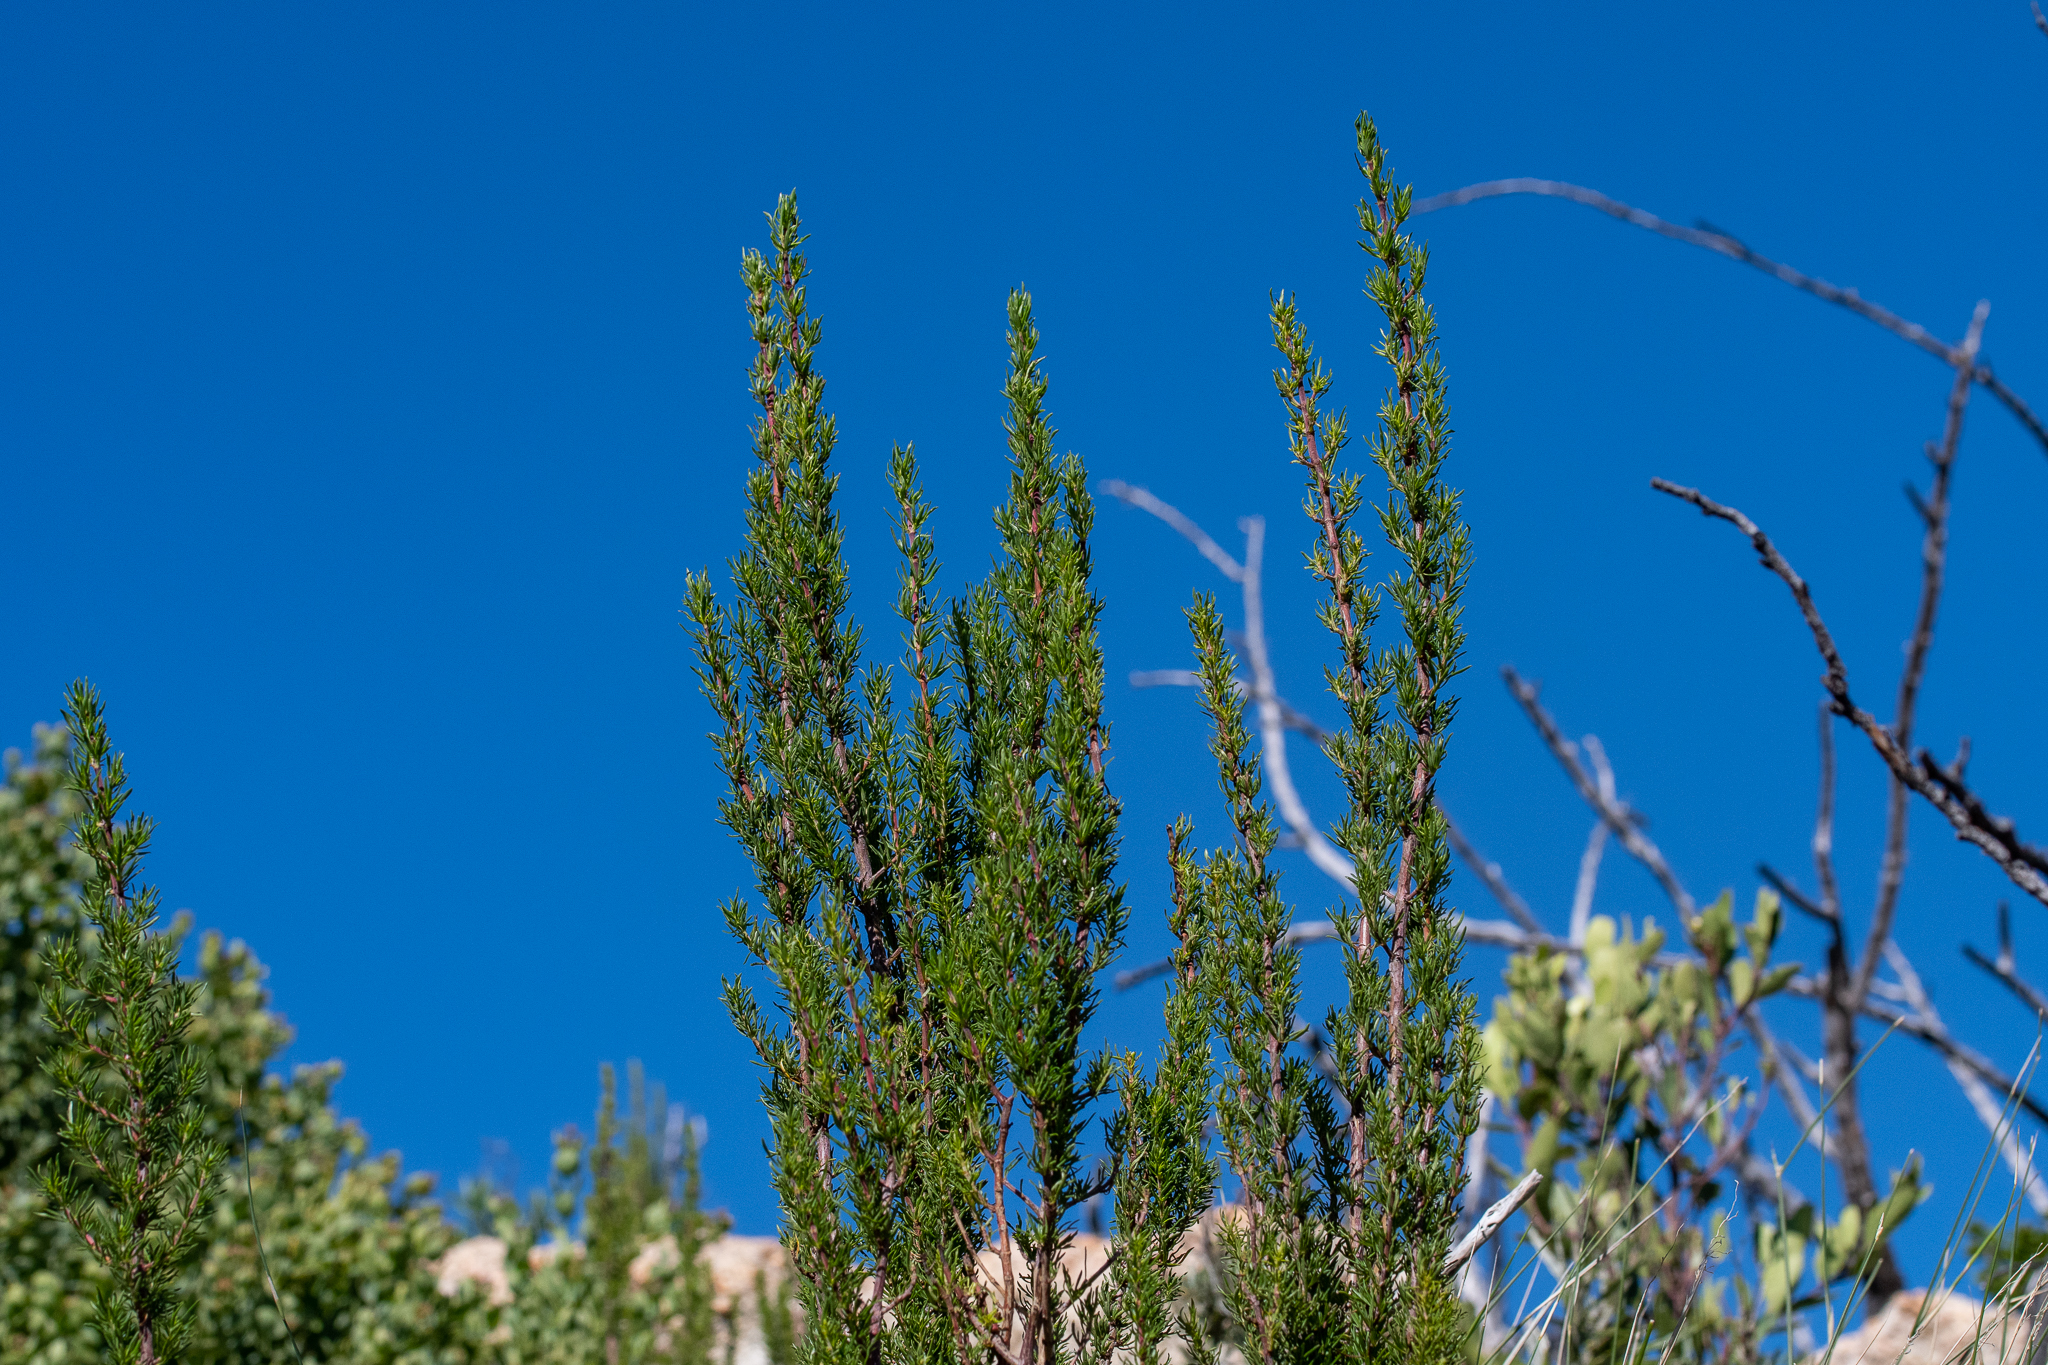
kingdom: Plantae
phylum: Tracheophyta
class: Magnoliopsida
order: Gentianales
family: Rubiaceae
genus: Anthospermum
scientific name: Anthospermum aethiopicum
